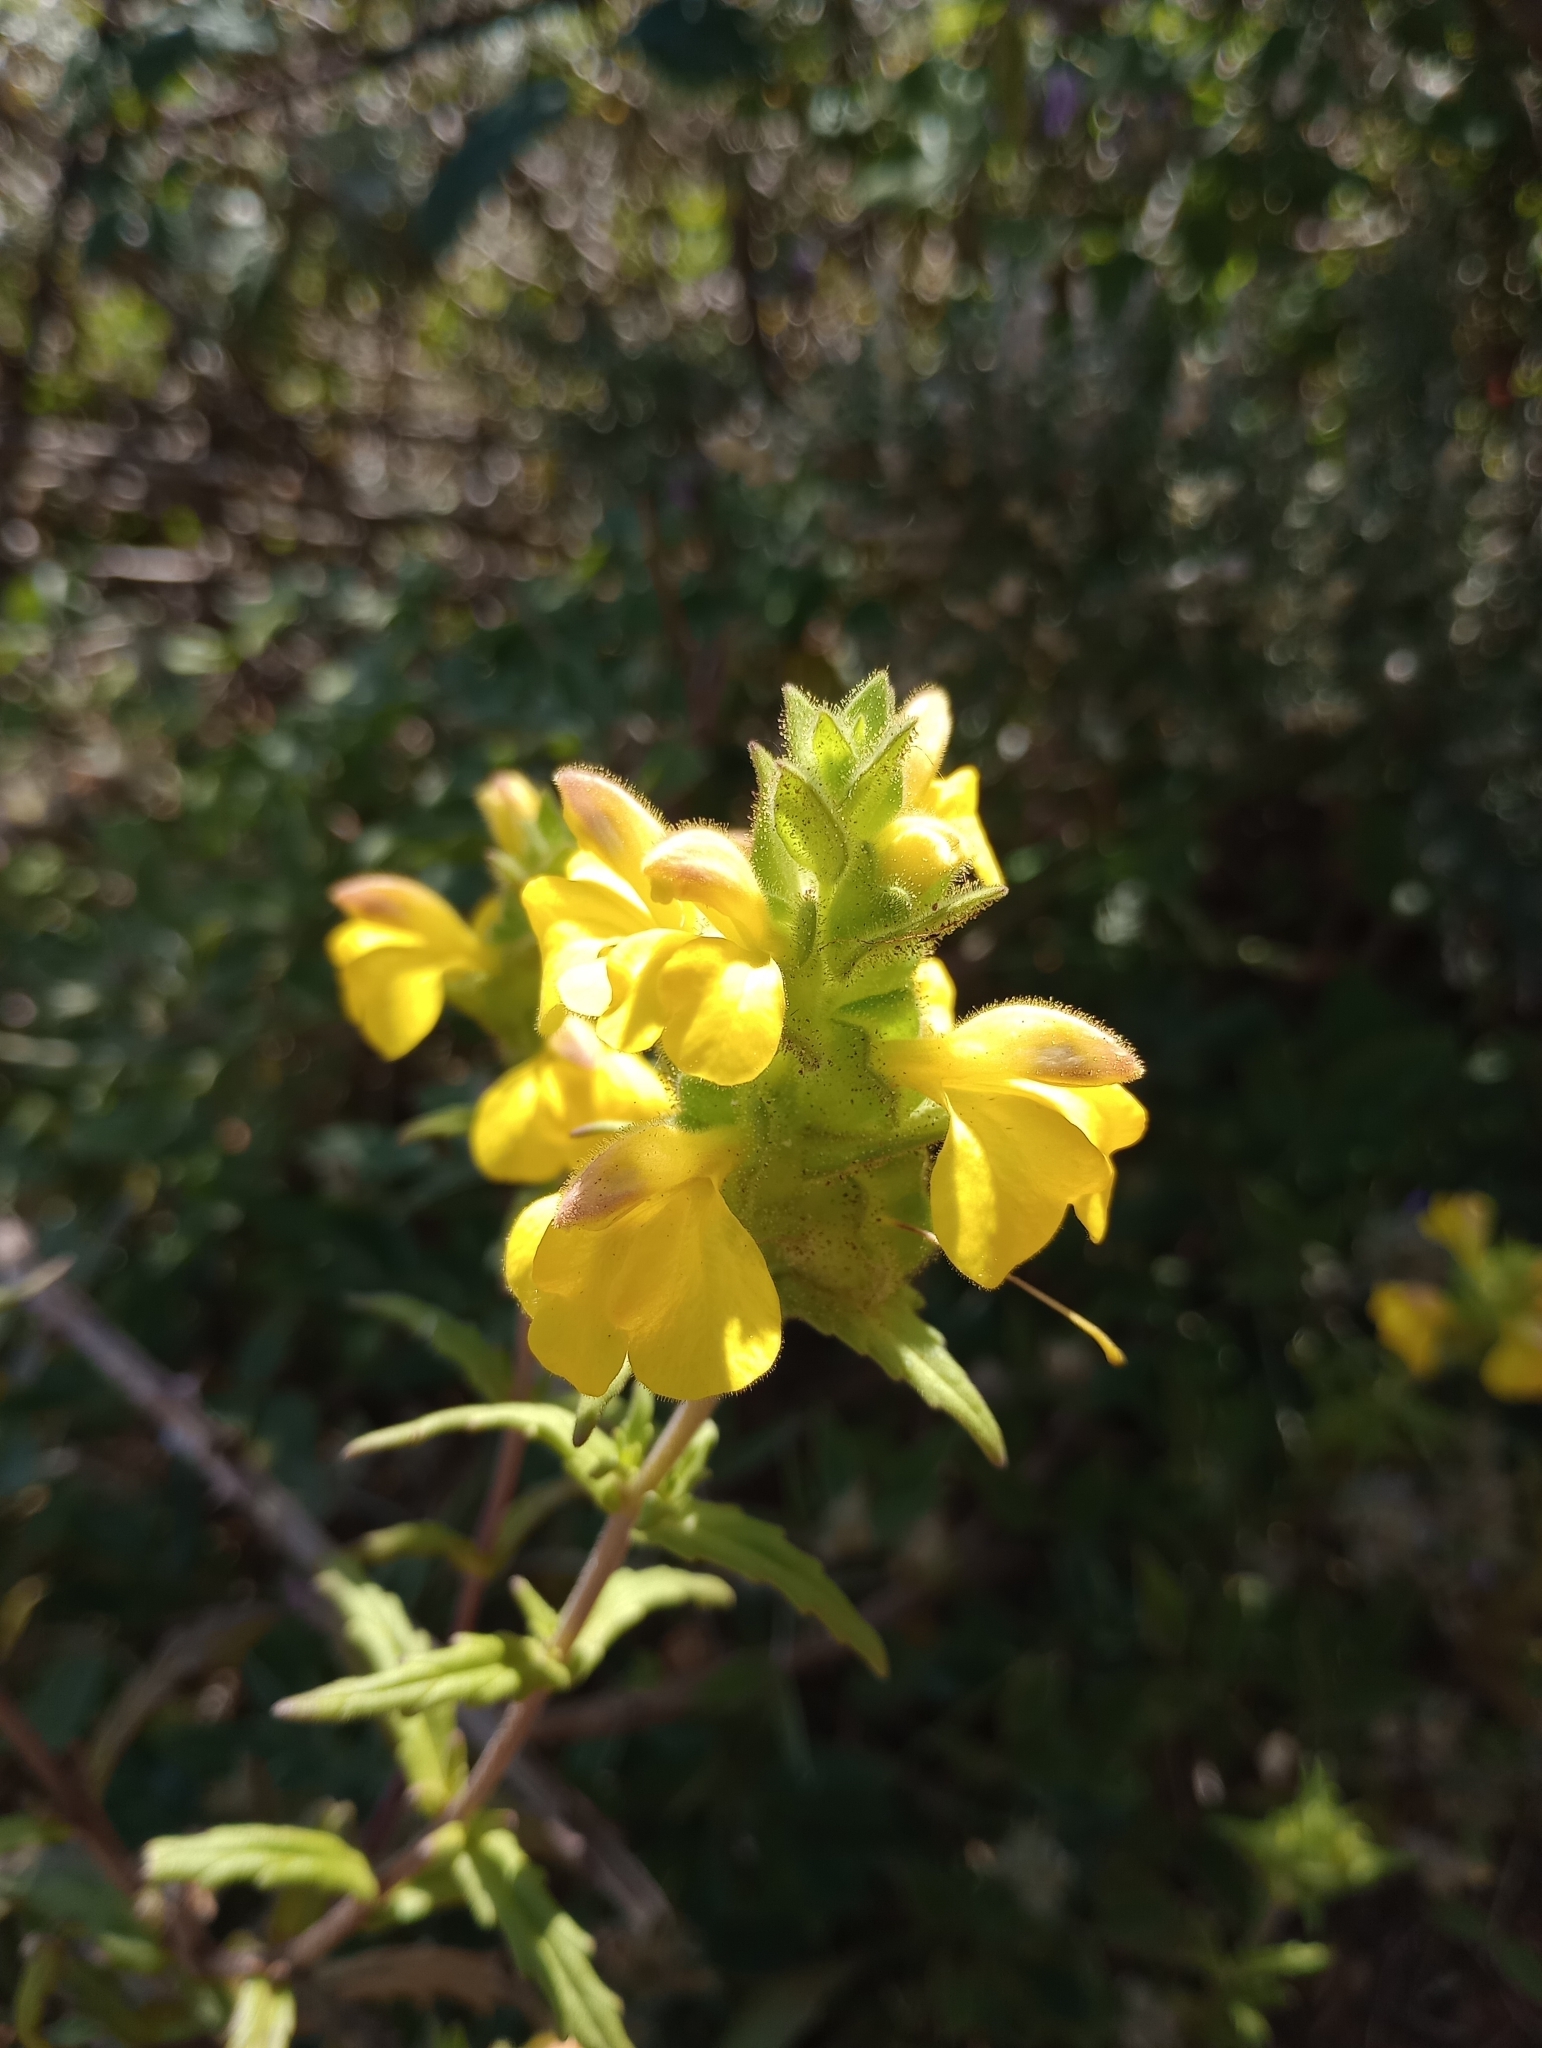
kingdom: Plantae
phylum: Tracheophyta
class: Magnoliopsida
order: Lamiales
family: Orobanchaceae
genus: Bellardia
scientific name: Bellardia trixago
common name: Mediterranean lineseed
